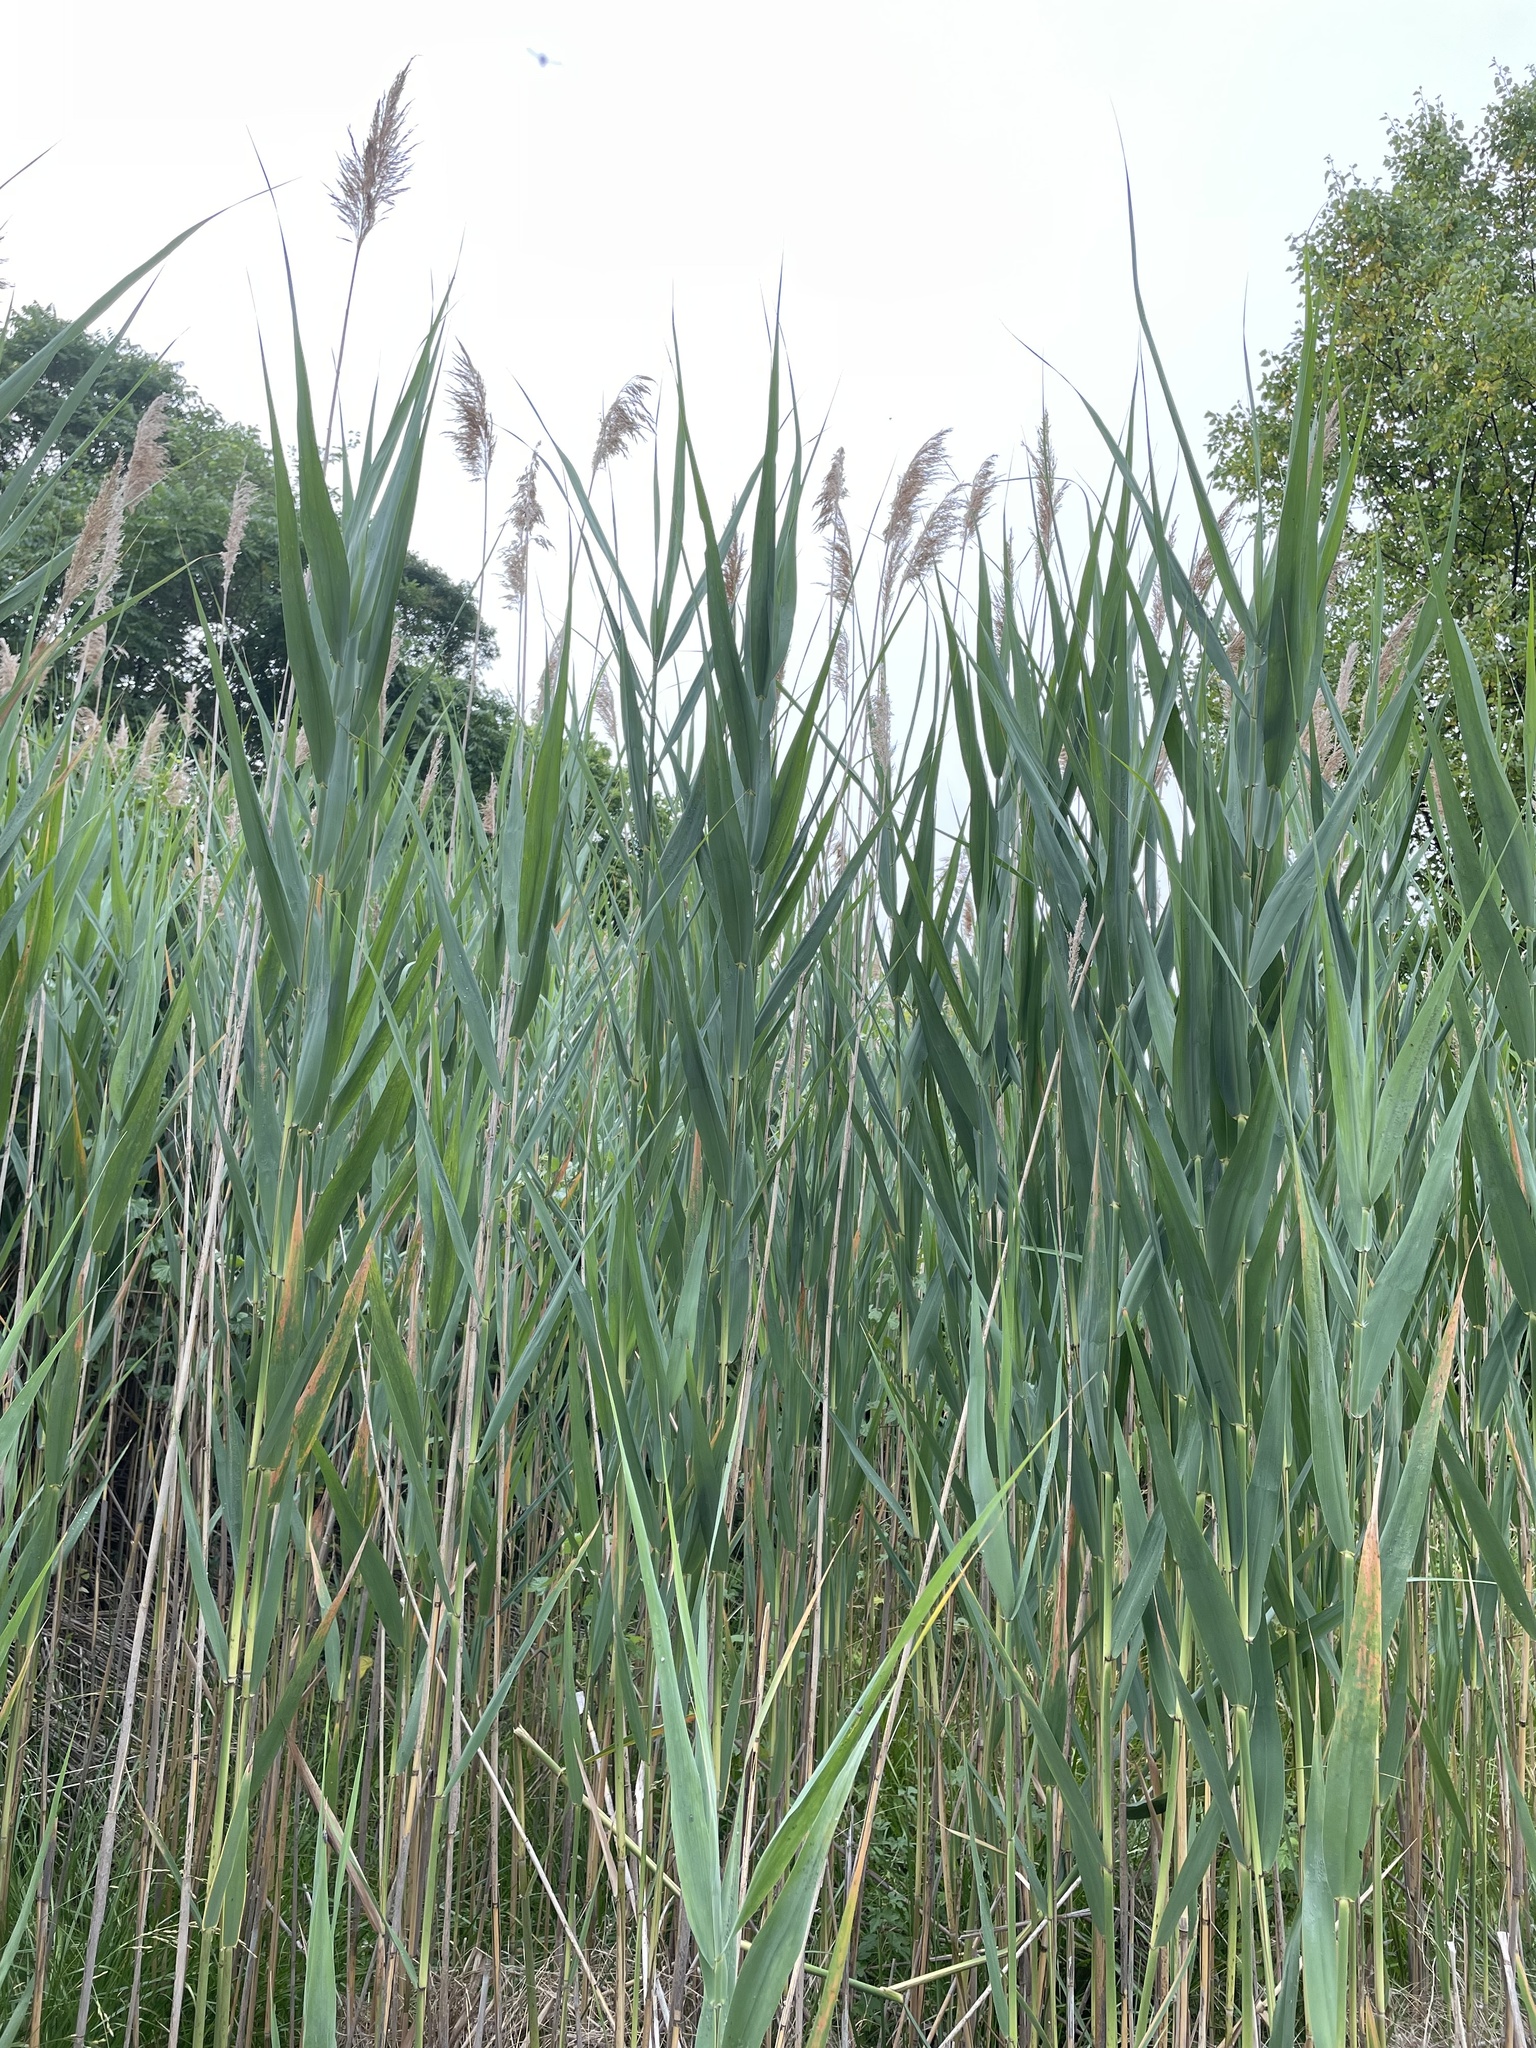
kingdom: Plantae
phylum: Tracheophyta
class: Liliopsida
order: Poales
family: Poaceae
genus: Phragmites
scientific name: Phragmites australis
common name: Common reed
